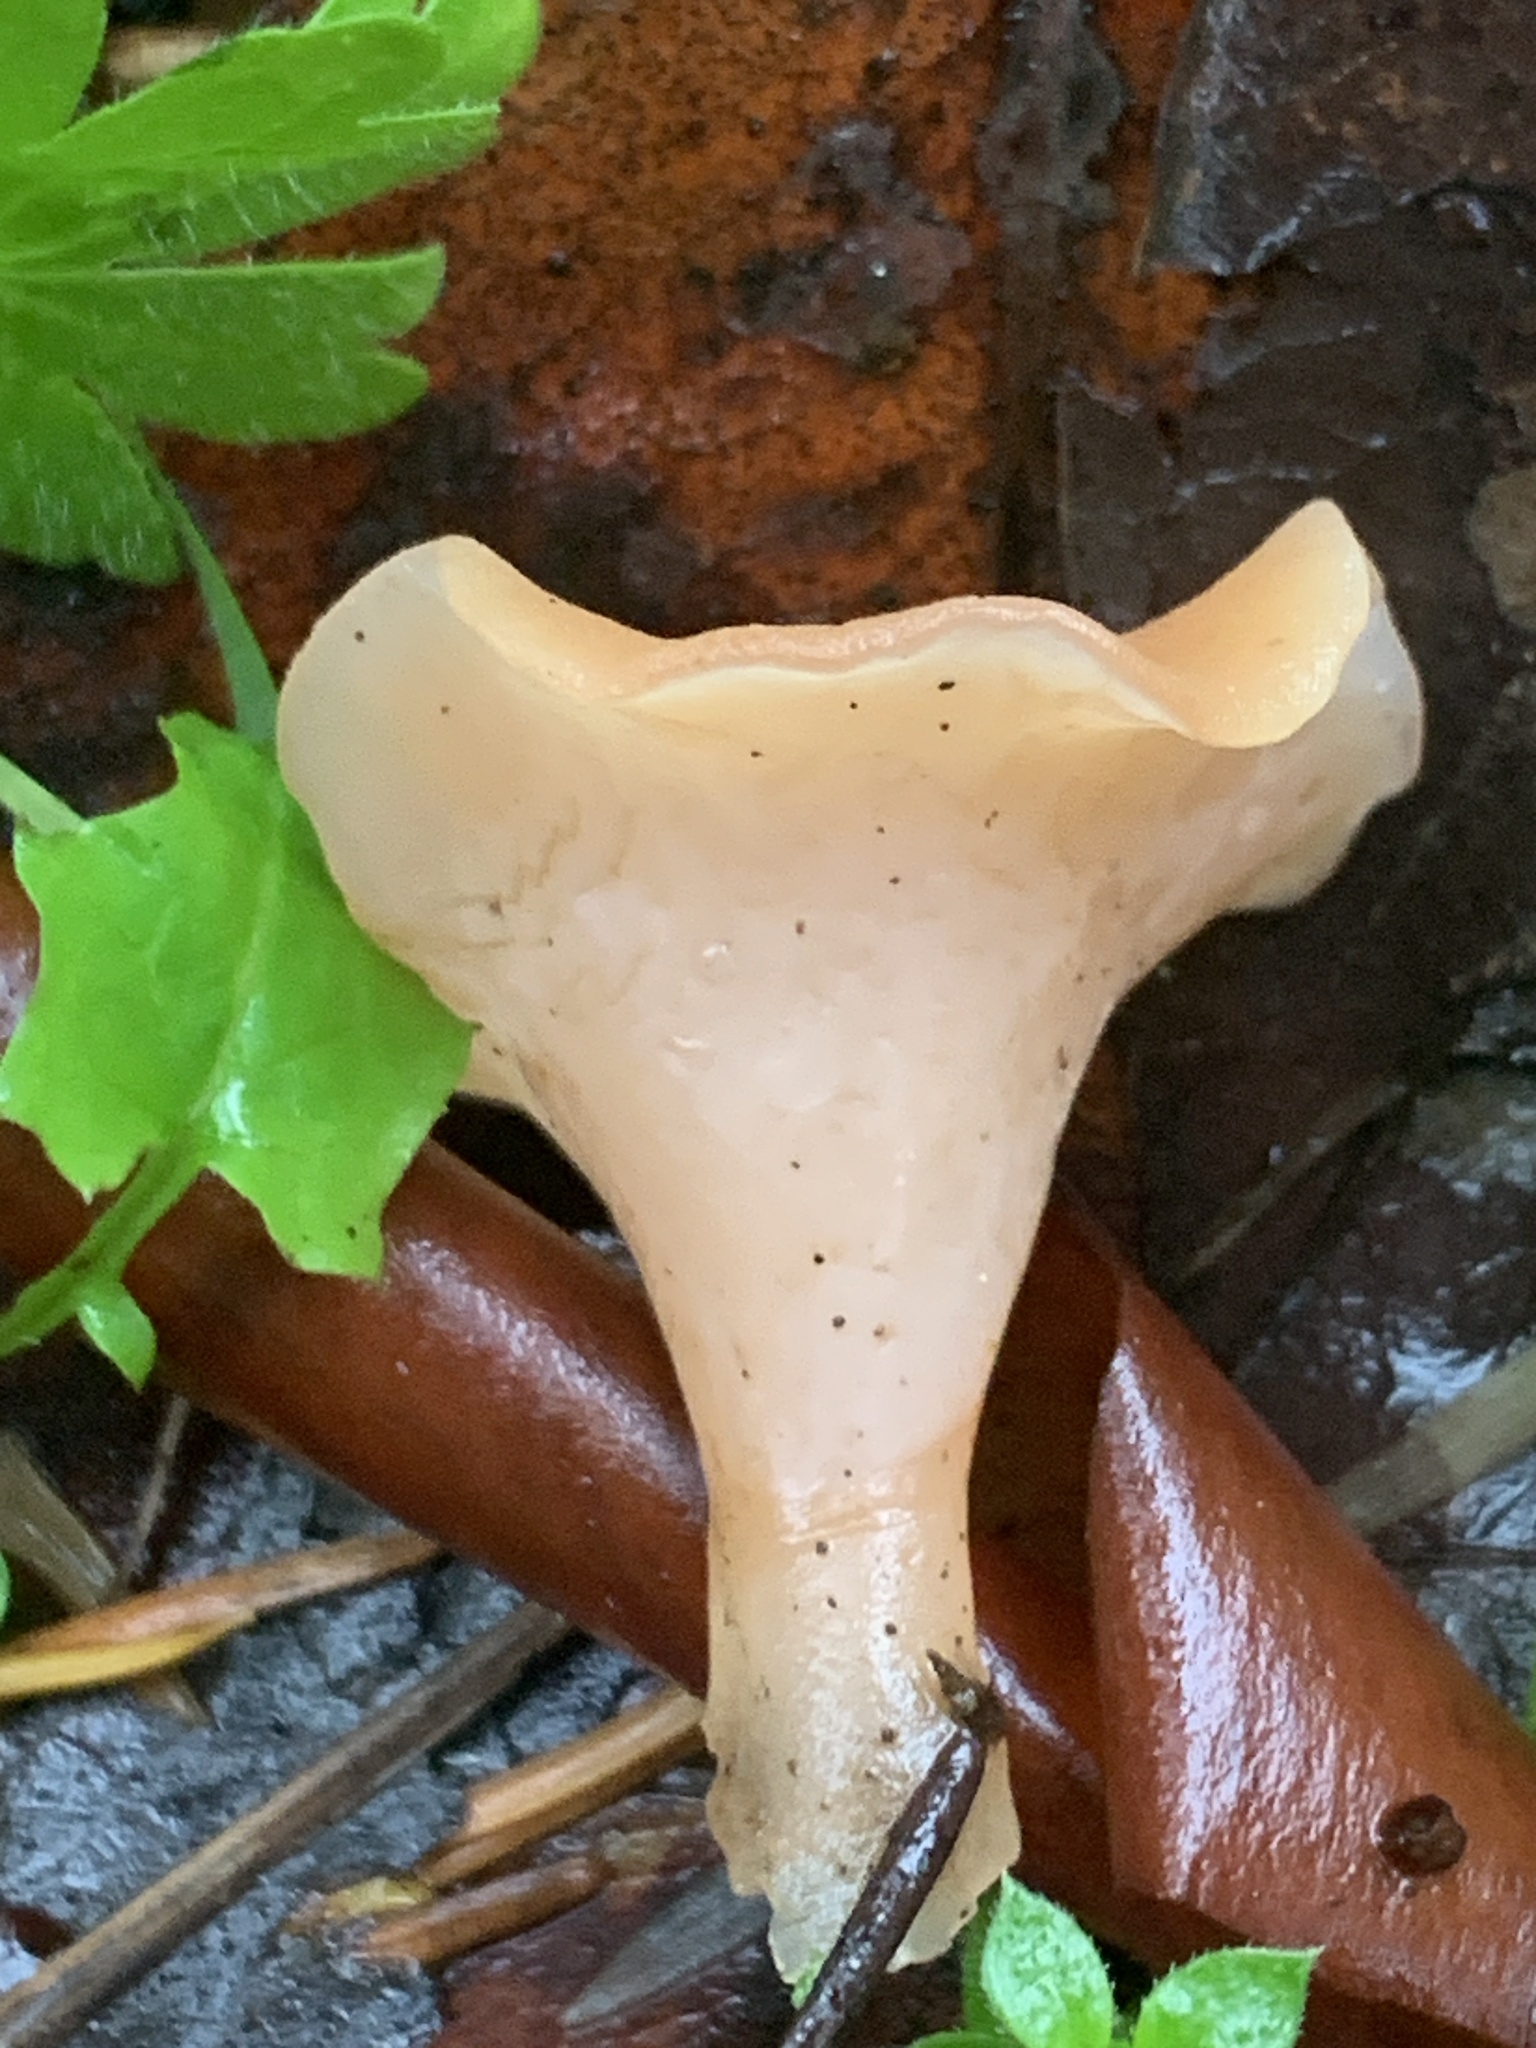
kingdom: Fungi
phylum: Basidiomycota
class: Agaricomycetes
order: Auriculariales
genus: Guepinia
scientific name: Guepinia helvelloides
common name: Salmon salad
